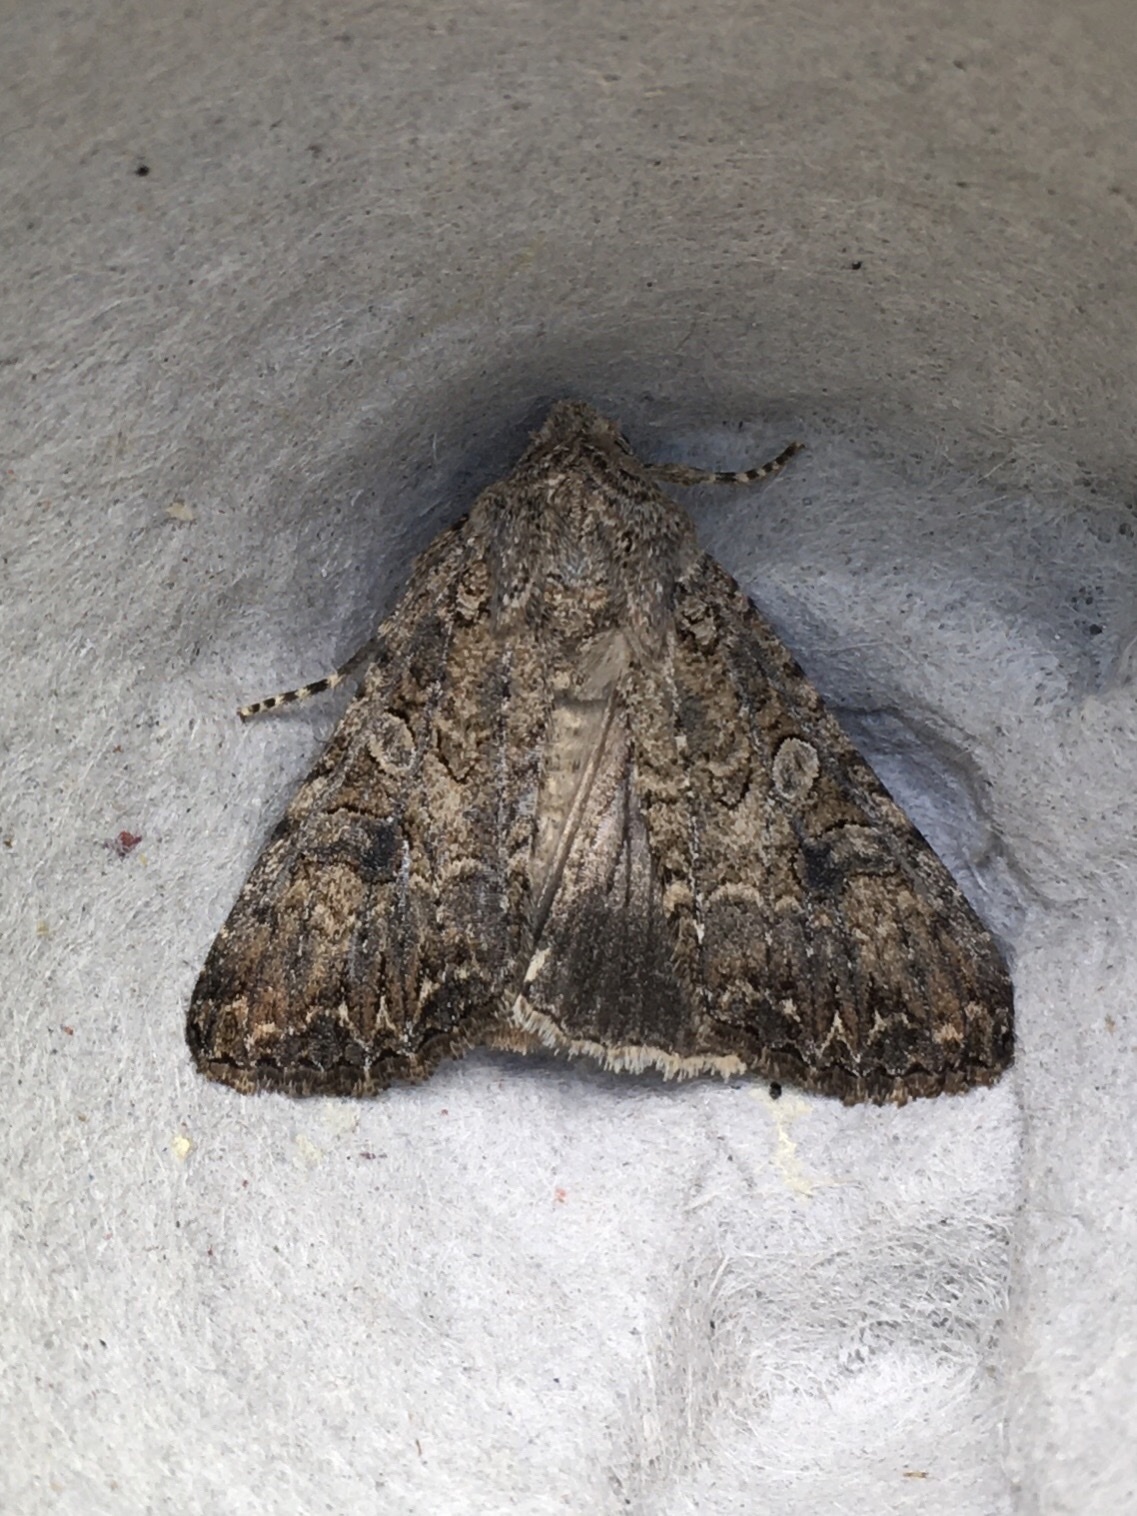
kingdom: Animalia
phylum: Arthropoda
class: Insecta
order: Lepidoptera
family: Noctuidae
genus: Anarta
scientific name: Anarta trifolii
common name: Clover cutworm moth
